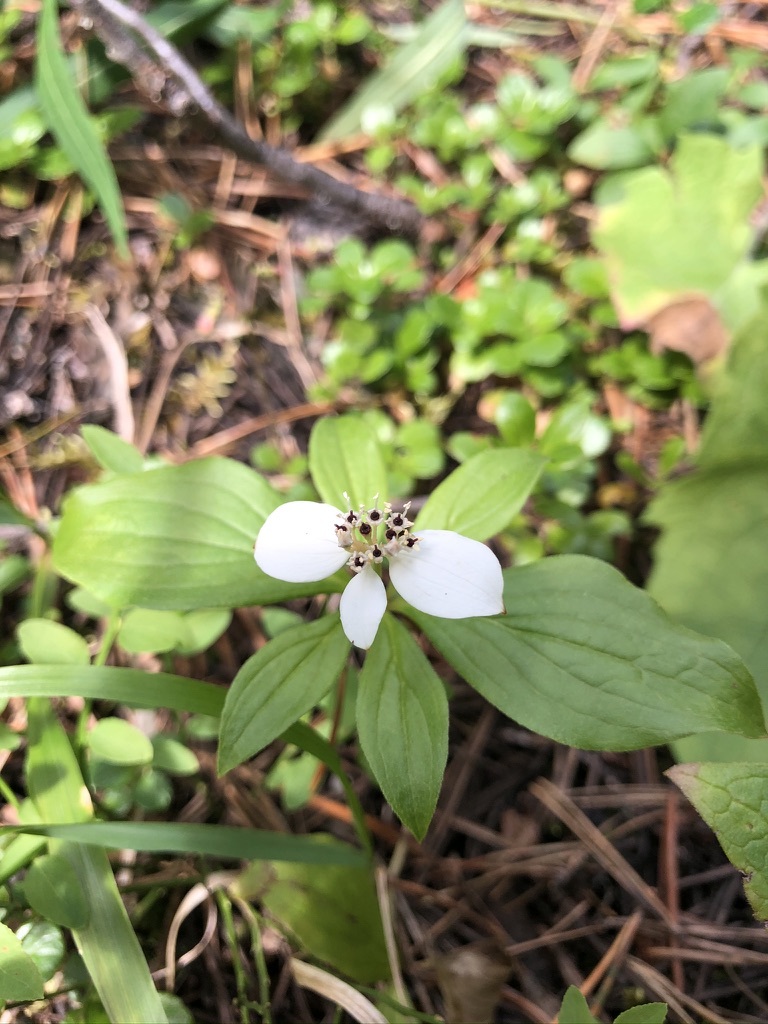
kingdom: Plantae
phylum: Tracheophyta
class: Magnoliopsida
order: Cornales
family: Cornaceae
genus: Cornus
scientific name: Cornus canadensis
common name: Creeping dogwood
